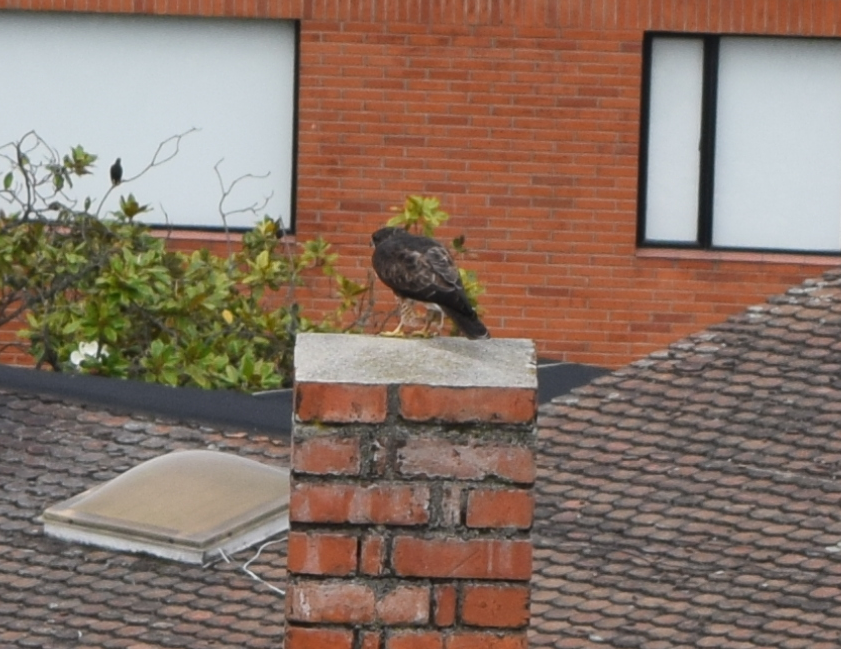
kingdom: Animalia
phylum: Chordata
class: Aves
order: Accipitriformes
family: Accipitridae
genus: Buteo
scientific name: Buteo albigula
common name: White-throated hawk
